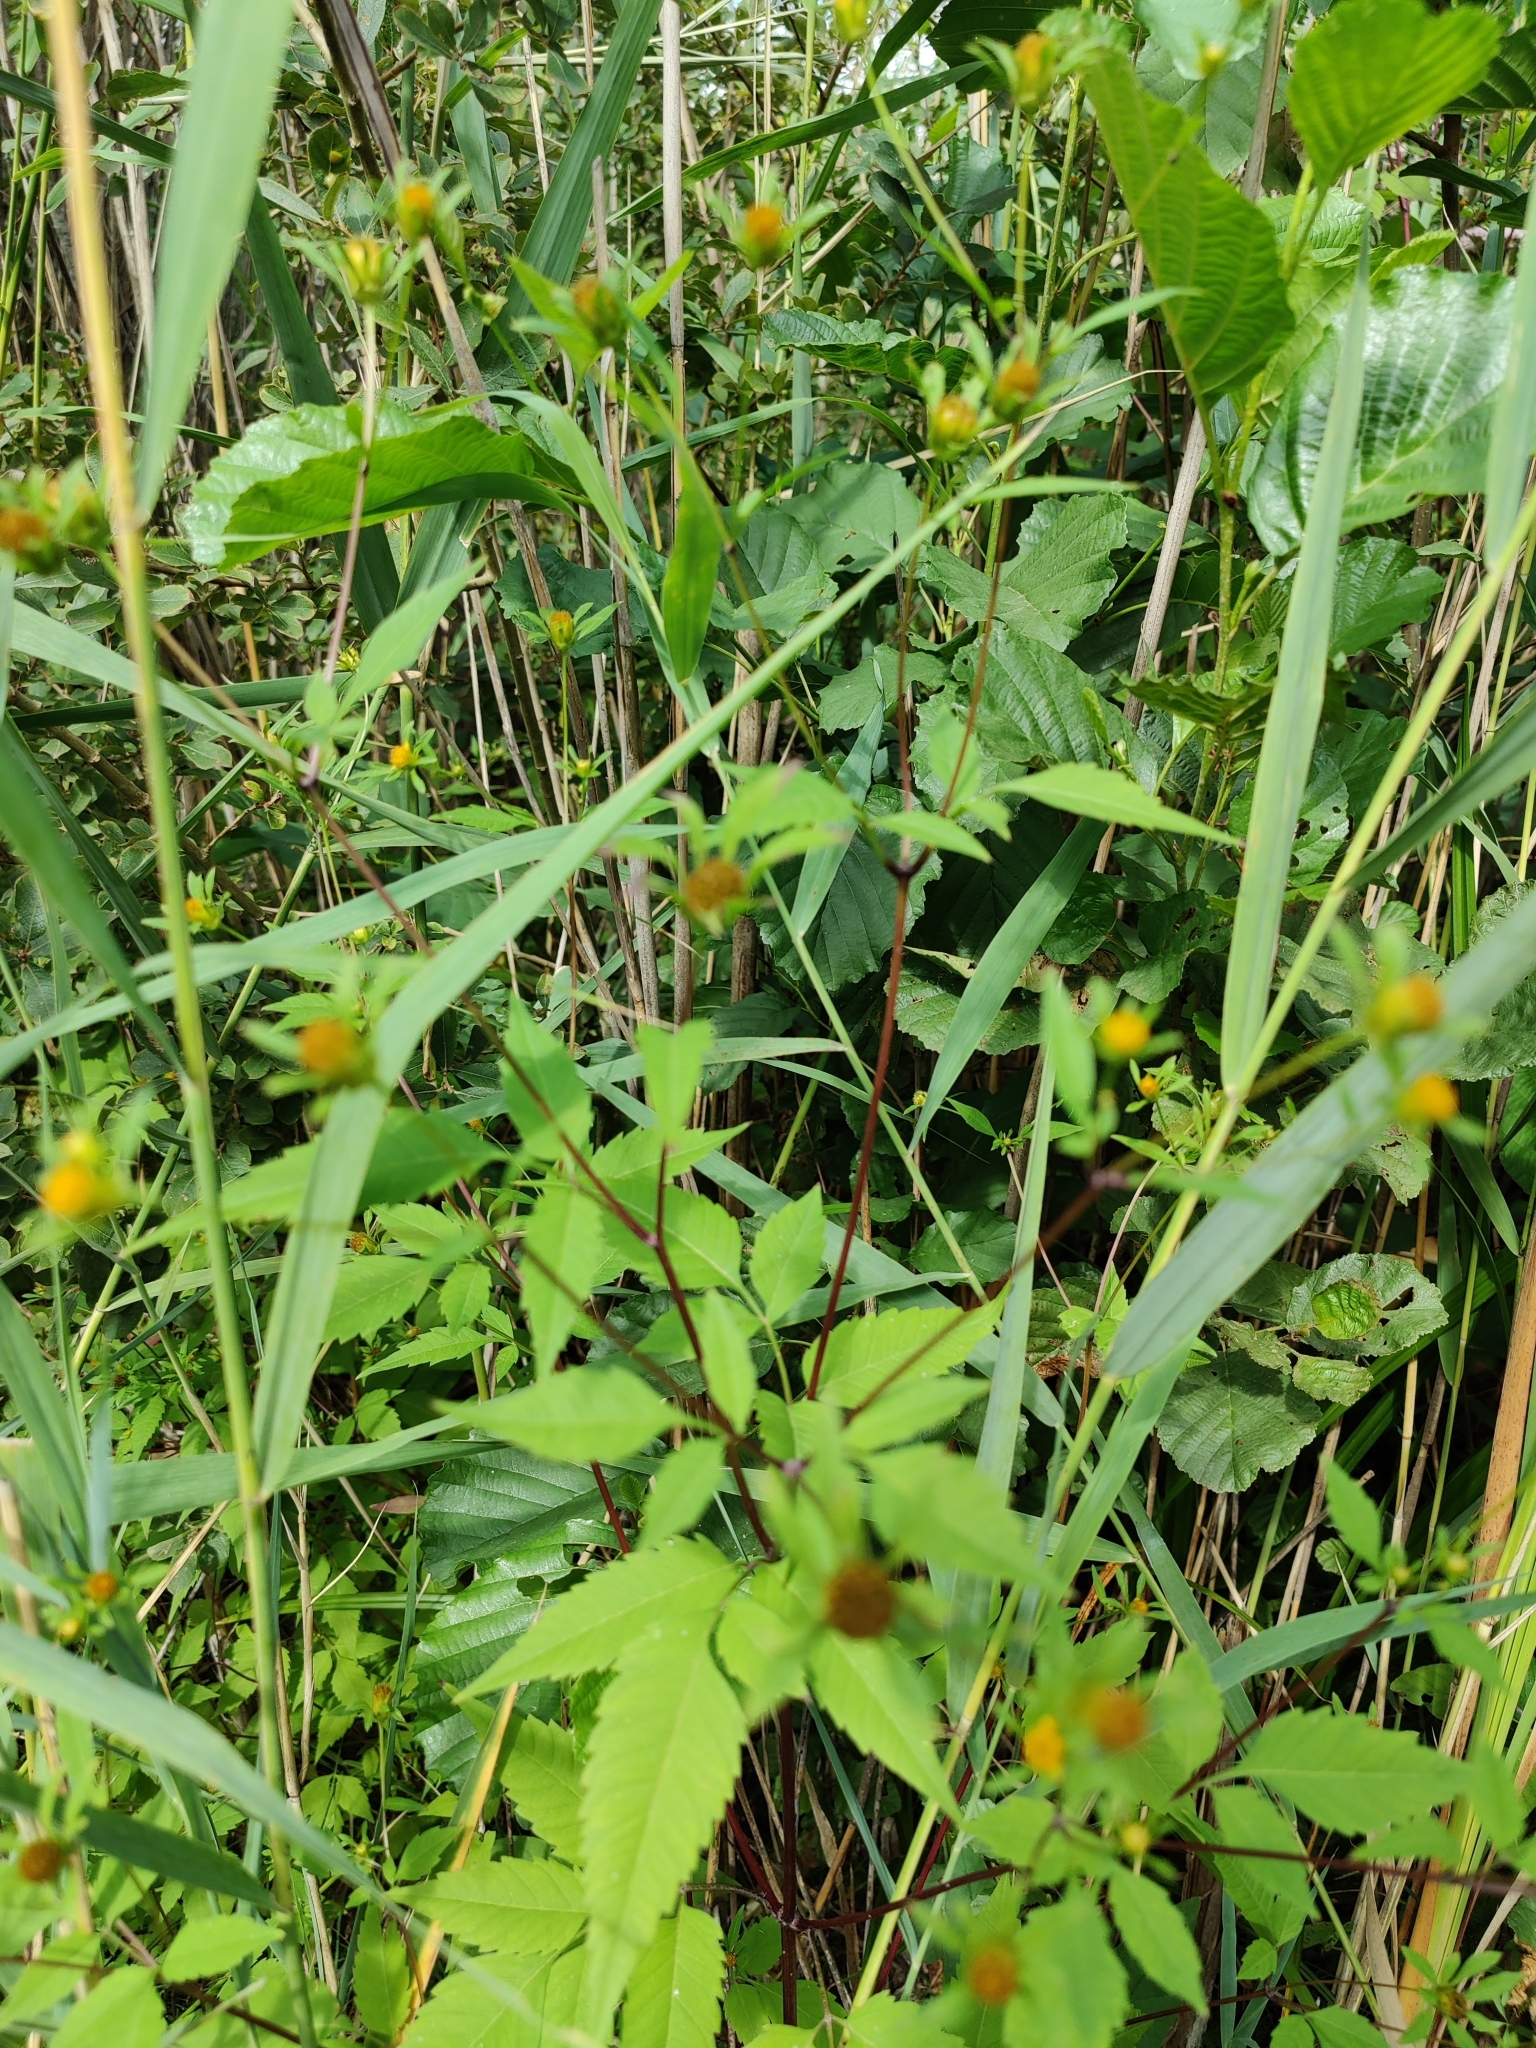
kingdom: Plantae
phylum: Tracheophyta
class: Magnoliopsida
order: Asterales
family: Asteraceae
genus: Bidens
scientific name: Bidens frondosa
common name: Beggarticks
